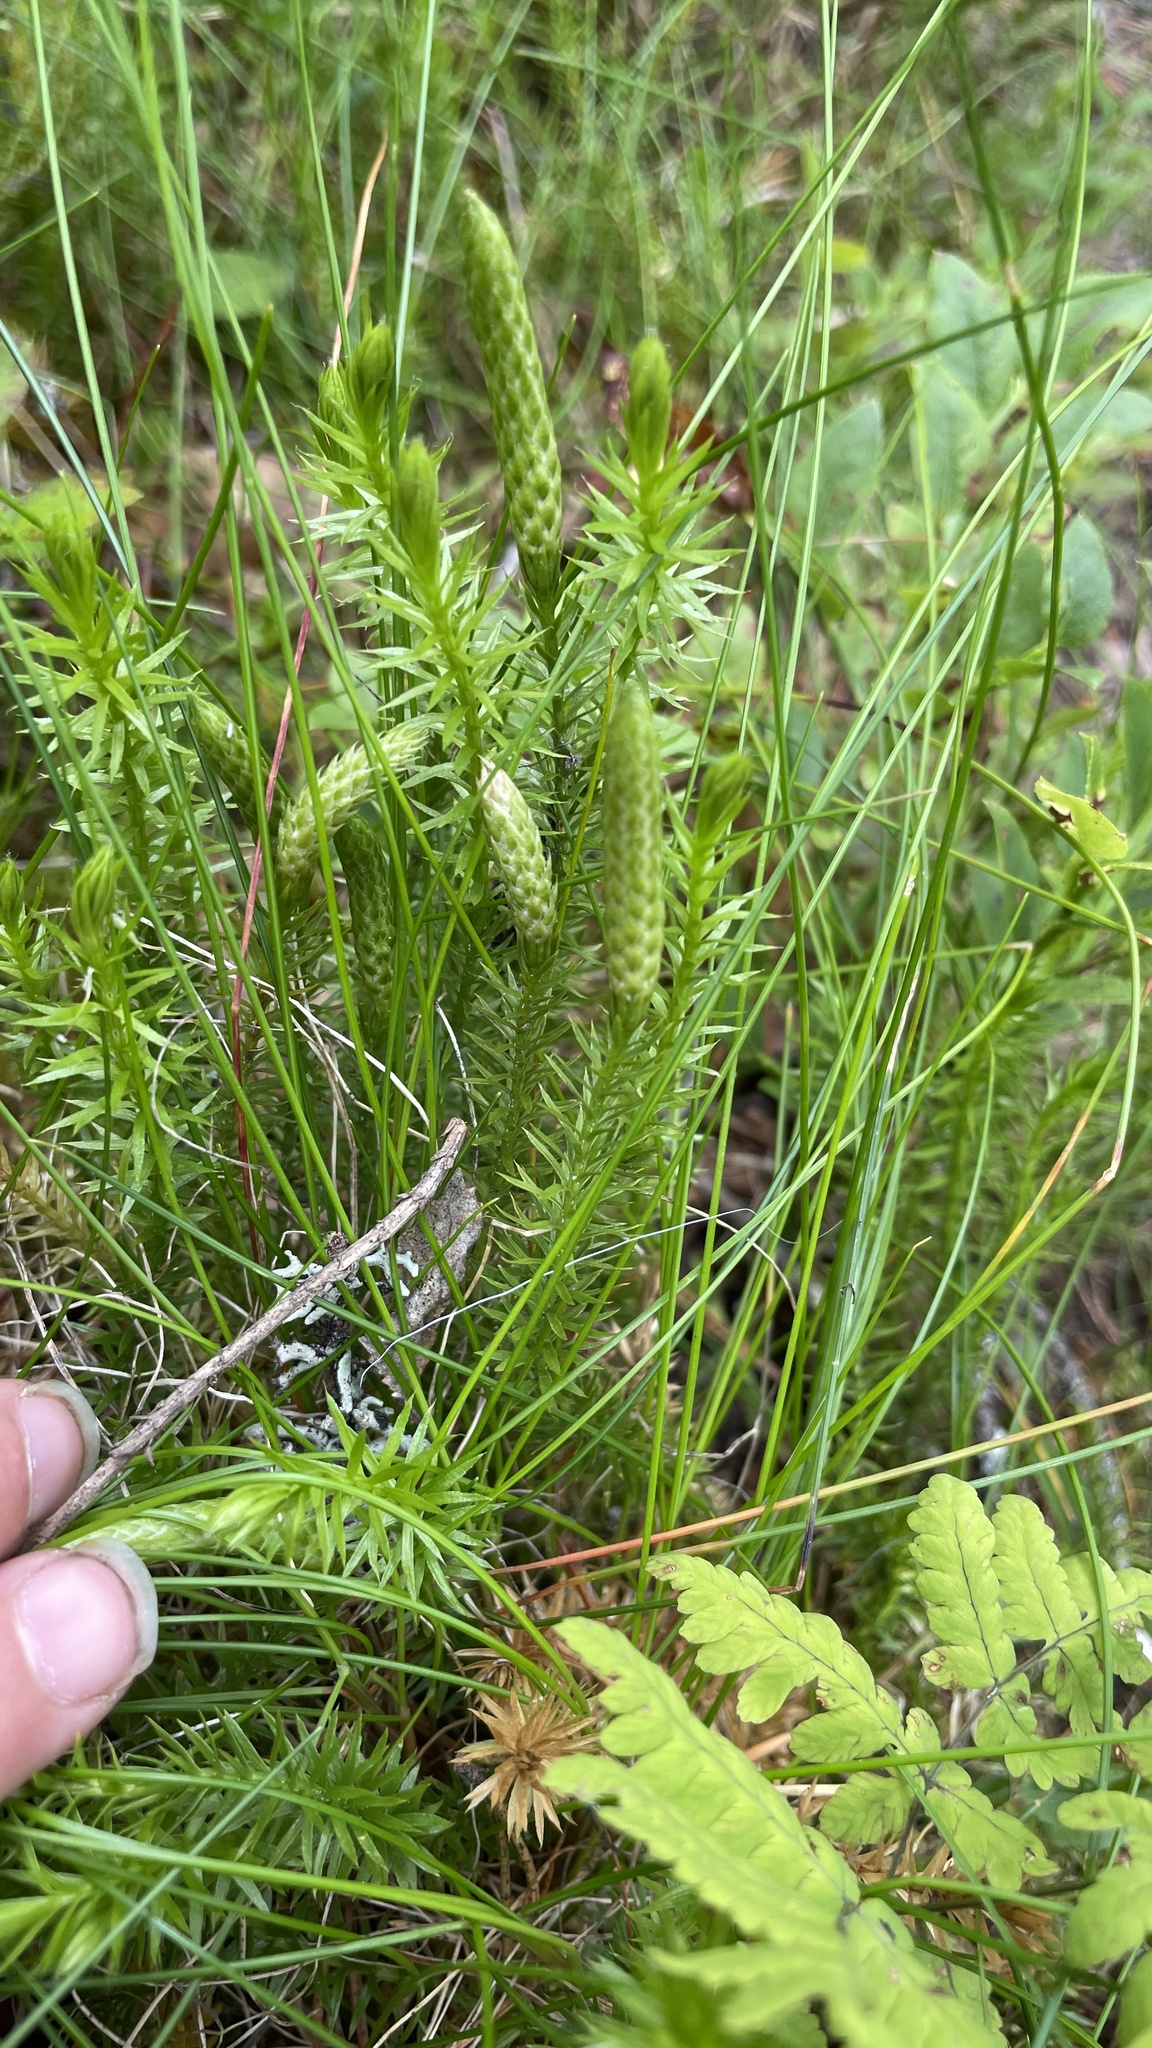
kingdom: Plantae
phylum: Tracheophyta
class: Lycopodiopsida
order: Lycopodiales
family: Lycopodiaceae
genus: Spinulum
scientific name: Spinulum annotinum
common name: Interrupted club-moss
